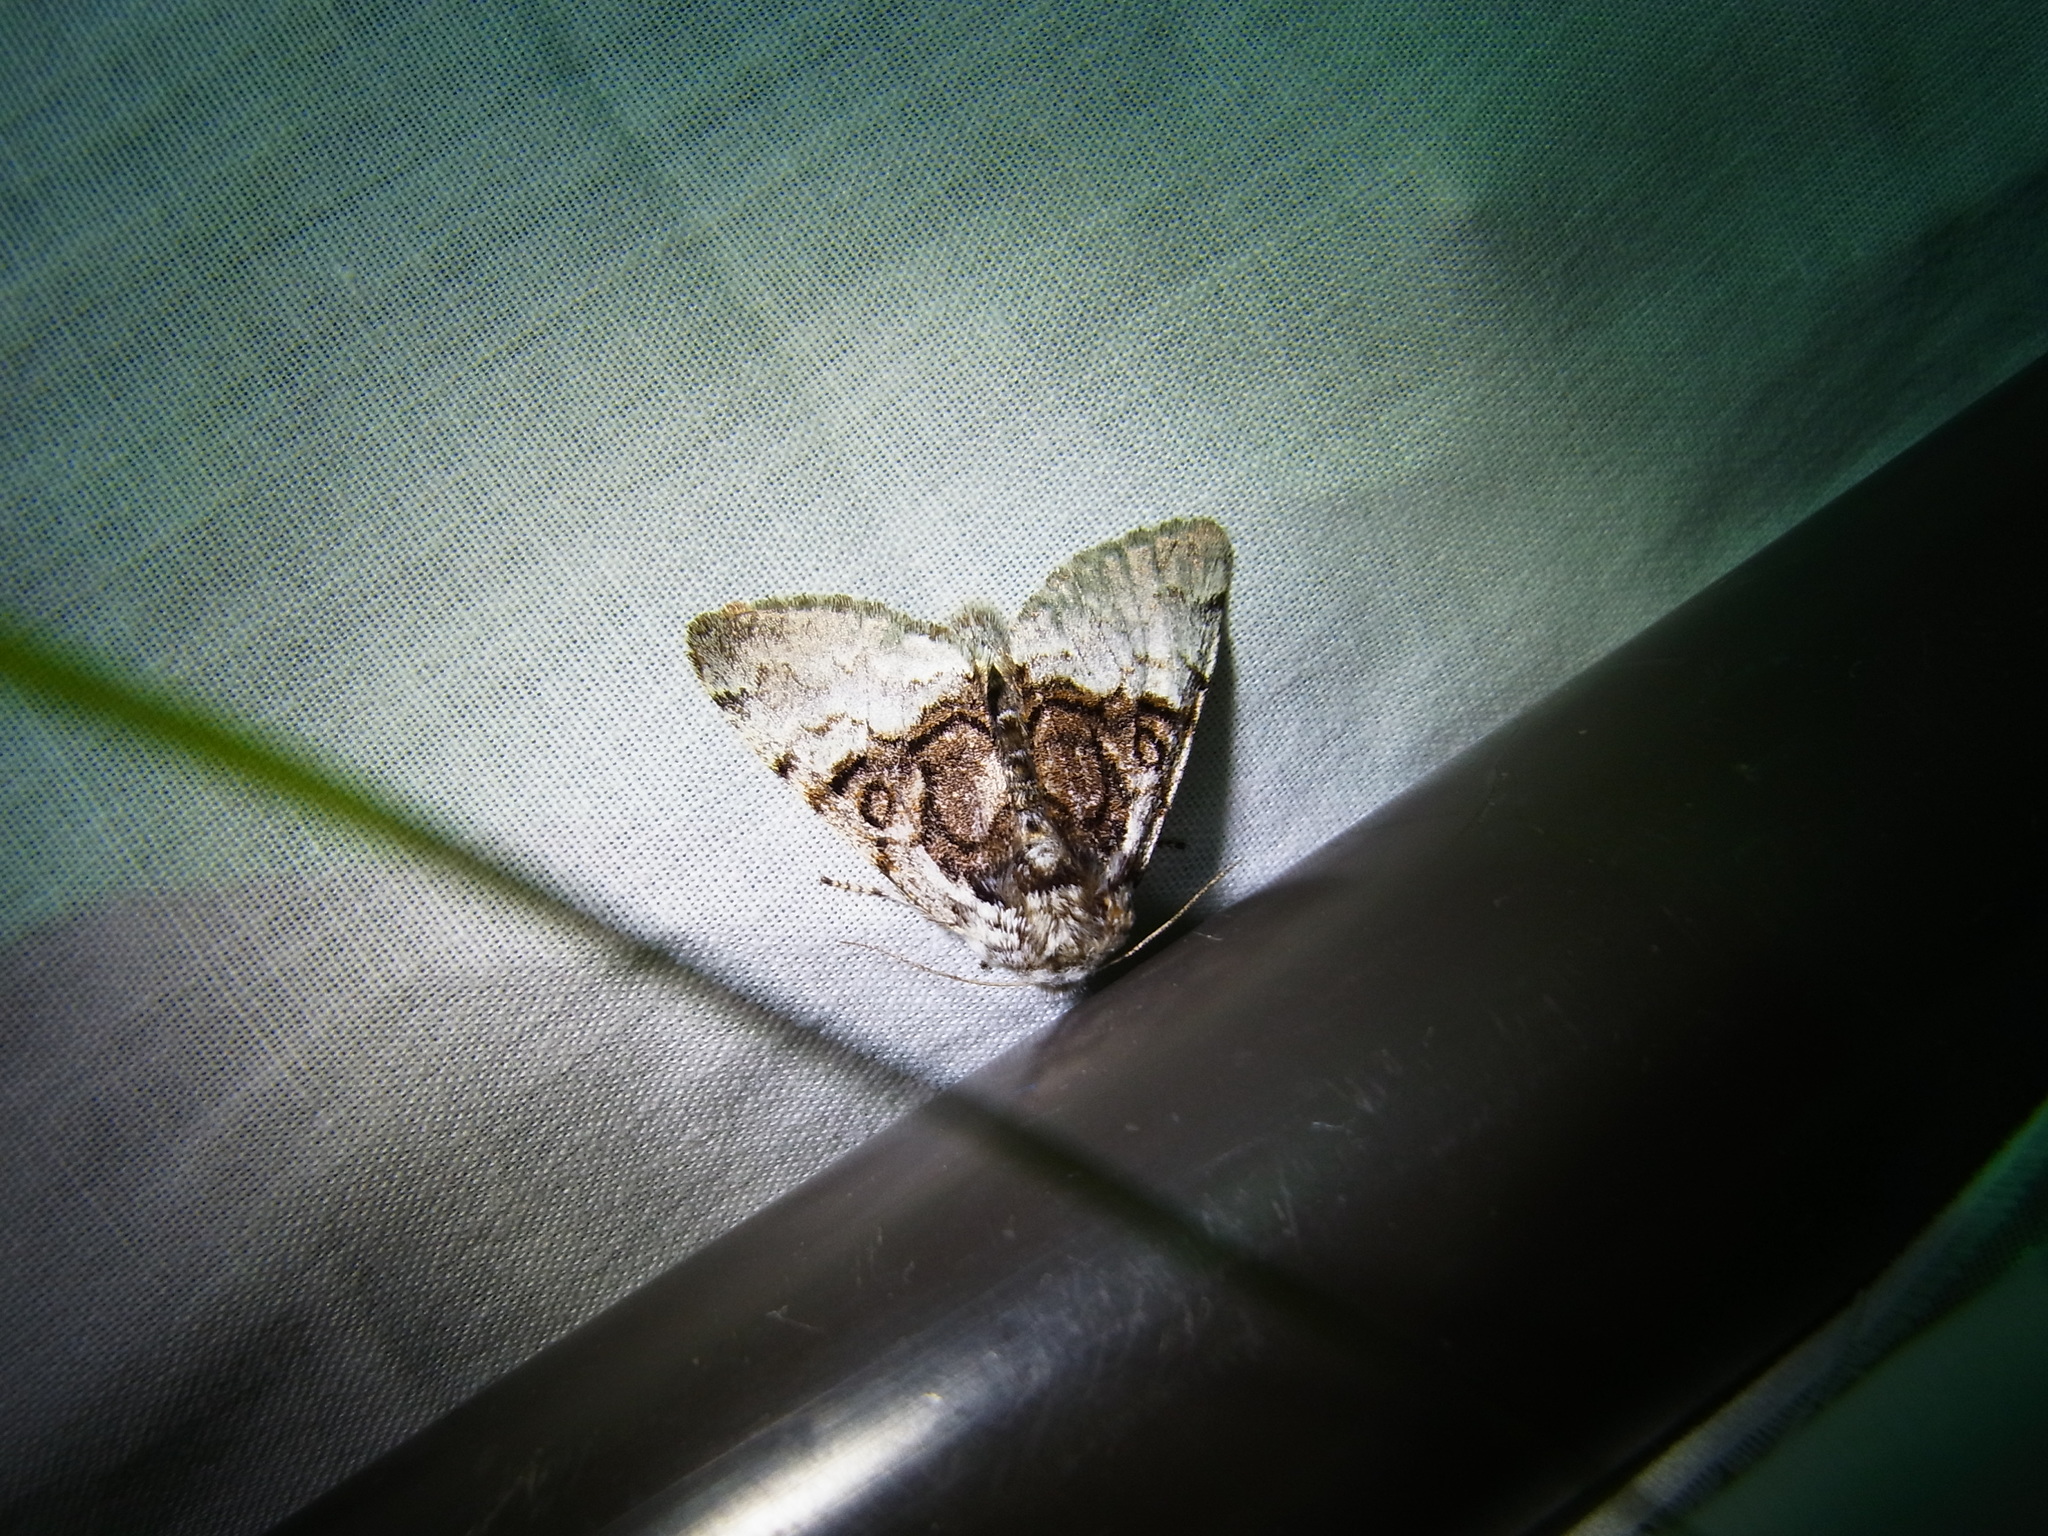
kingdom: Animalia
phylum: Arthropoda
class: Insecta
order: Lepidoptera
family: Noctuidae
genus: Colocasia
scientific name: Colocasia mus
